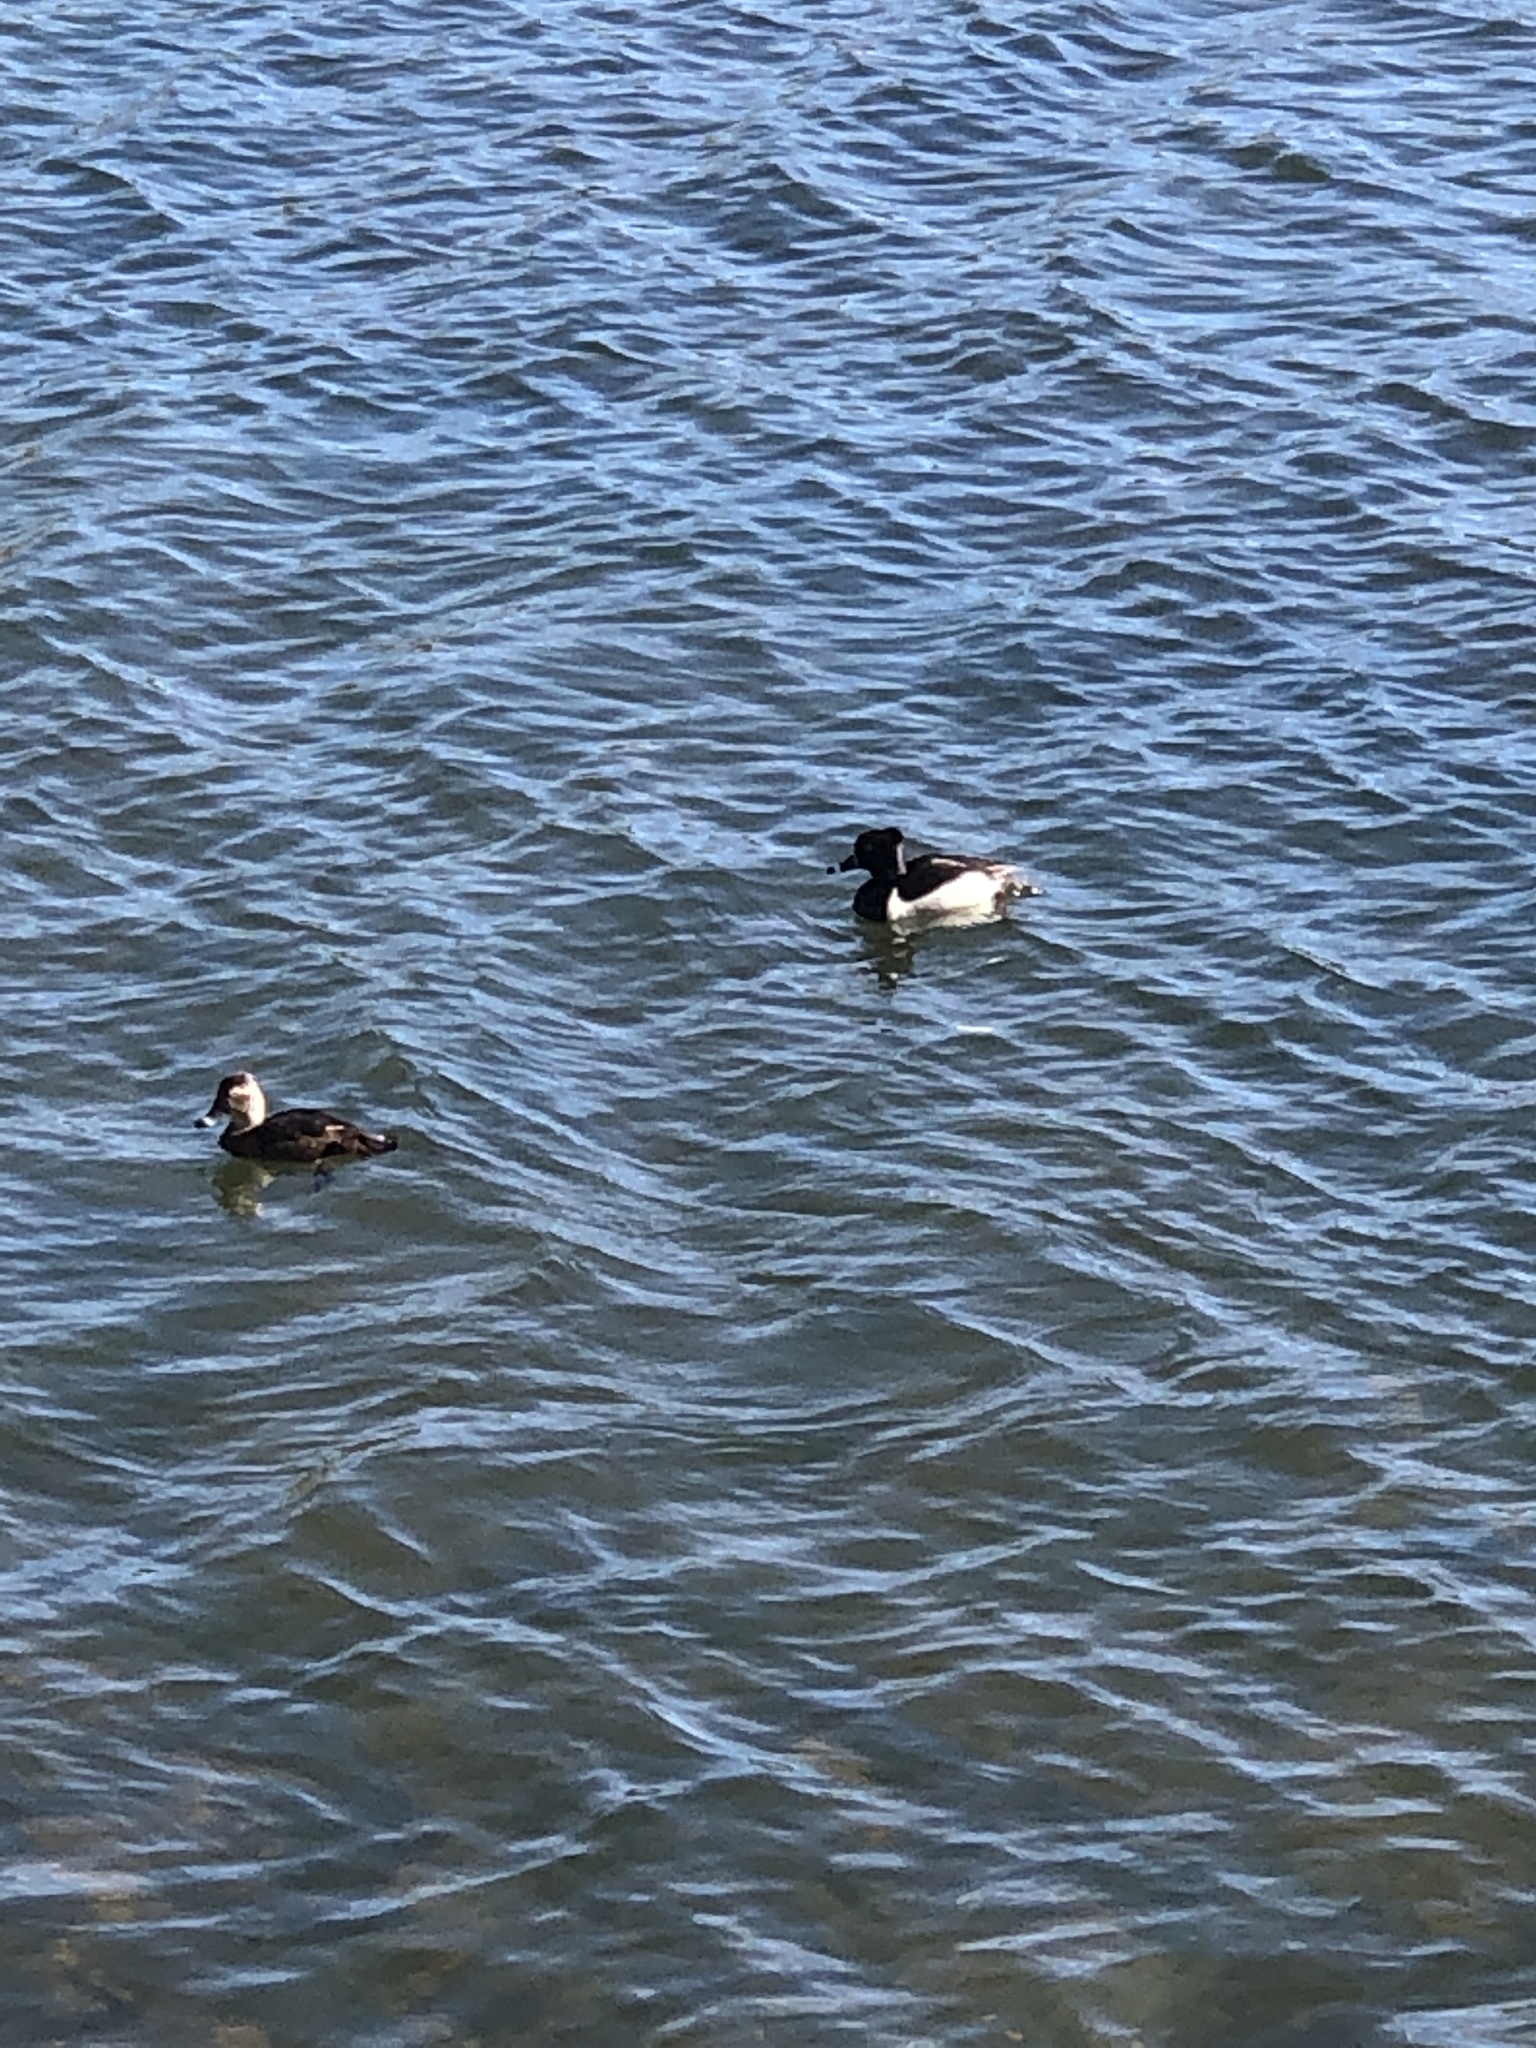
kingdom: Animalia
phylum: Chordata
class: Aves
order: Anseriformes
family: Anatidae
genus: Aythya
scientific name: Aythya collaris
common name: Ring-necked duck
